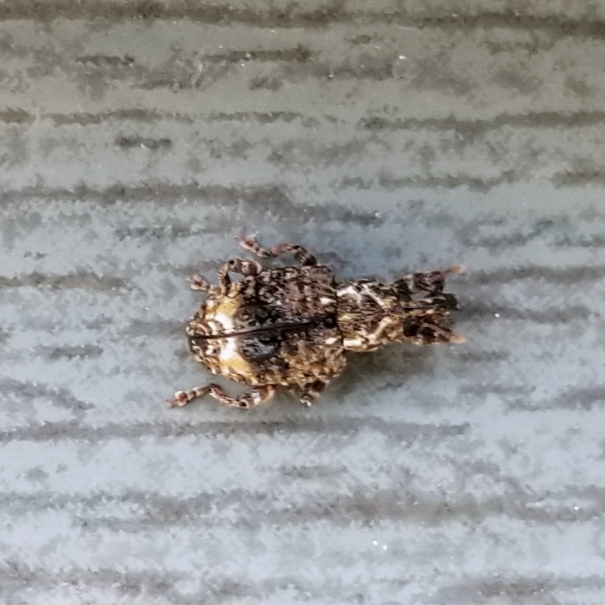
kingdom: Animalia
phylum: Arthropoda
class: Insecta
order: Coleoptera
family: Curculionidae
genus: Conotrachelus
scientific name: Conotrachelus nenuphar
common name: Plum curculio
